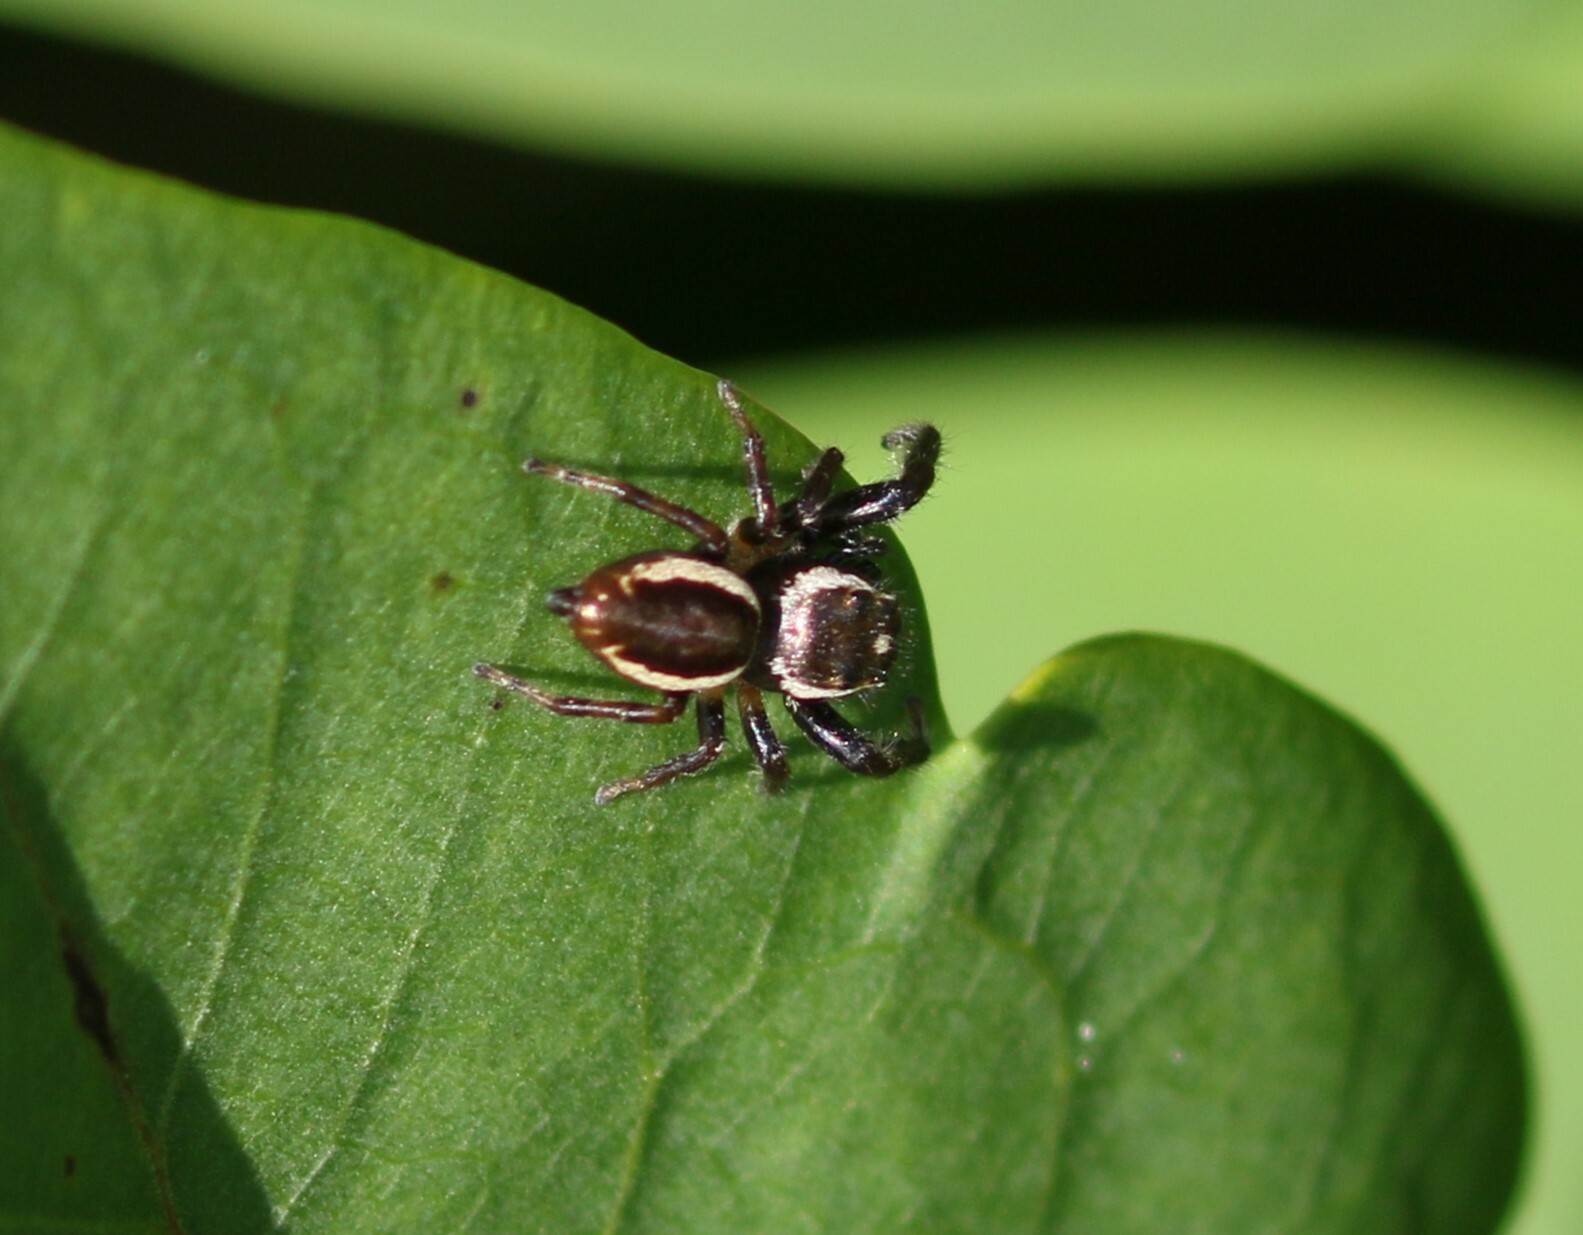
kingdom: Animalia
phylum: Arthropoda
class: Arachnida
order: Araneae
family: Salticidae
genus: Eris
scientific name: Eris militaris
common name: Bronze jumper
